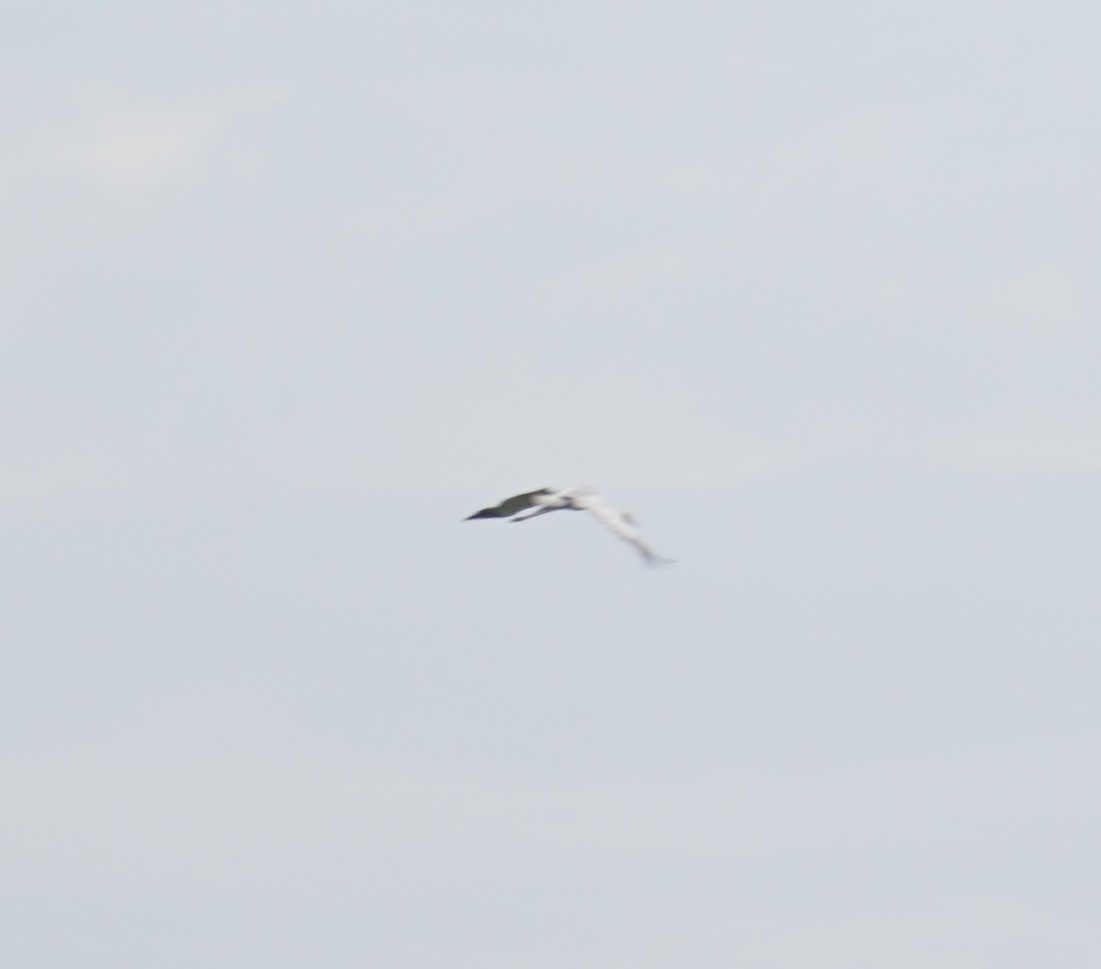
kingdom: Animalia
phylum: Chordata
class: Aves
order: Gruiformes
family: Gruidae
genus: Grus
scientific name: Grus rubicunda
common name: Brolga
